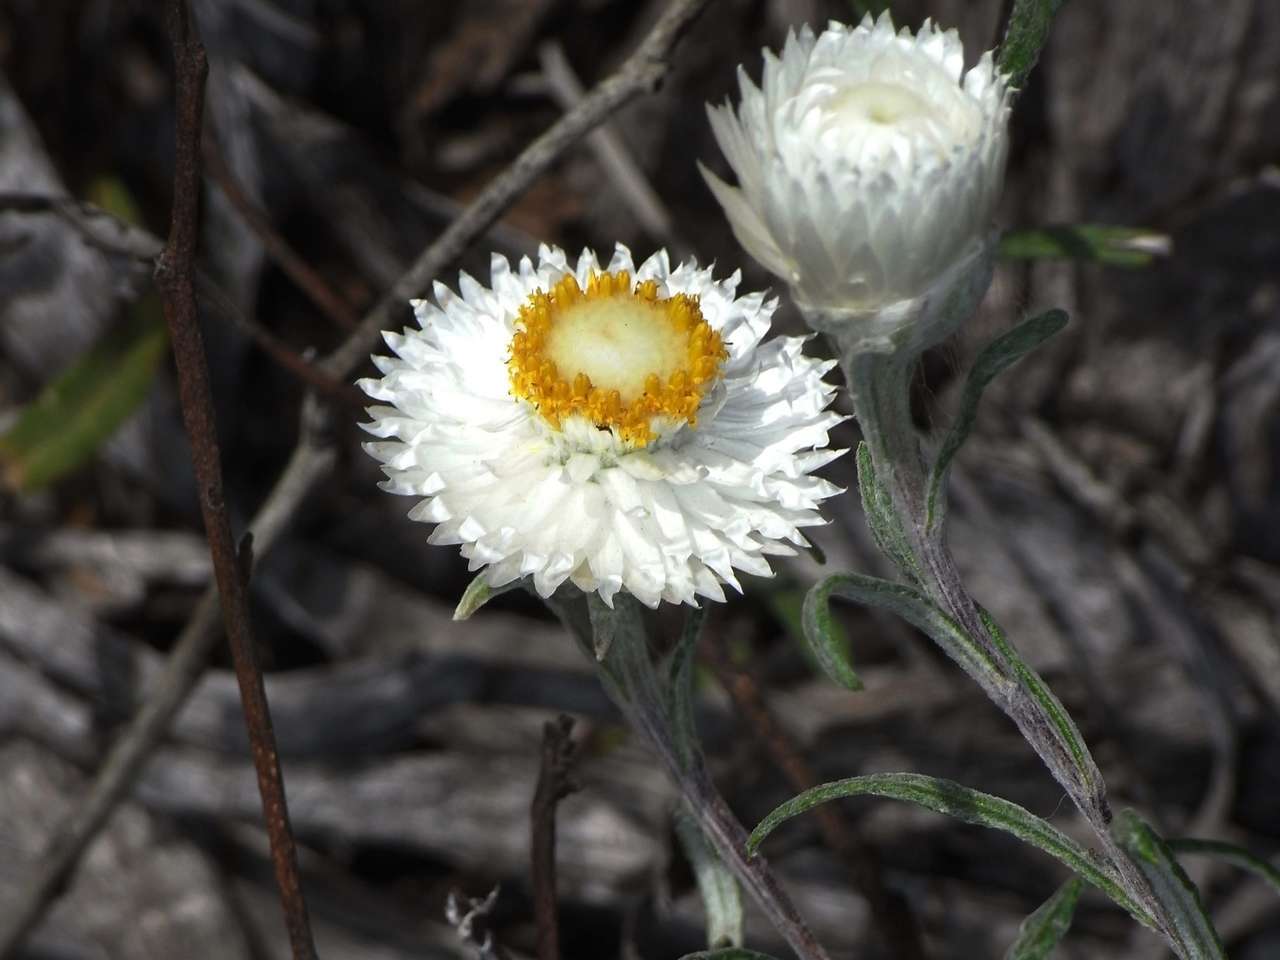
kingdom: Plantae
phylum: Tracheophyta
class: Magnoliopsida
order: Asterales
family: Asteraceae
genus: Helichrysum
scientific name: Helichrysum leucopsideum
